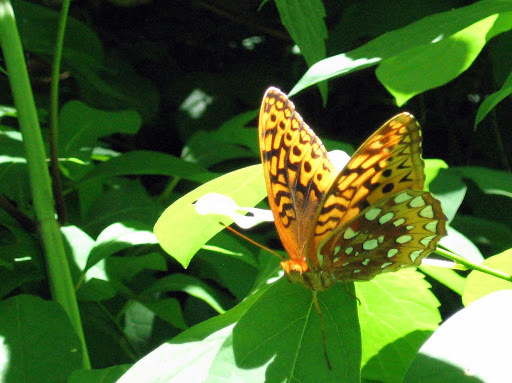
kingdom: Animalia
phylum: Arthropoda
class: Insecta
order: Lepidoptera
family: Nymphalidae
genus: Speyeria
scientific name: Speyeria cybele
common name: Great spangled fritillary
